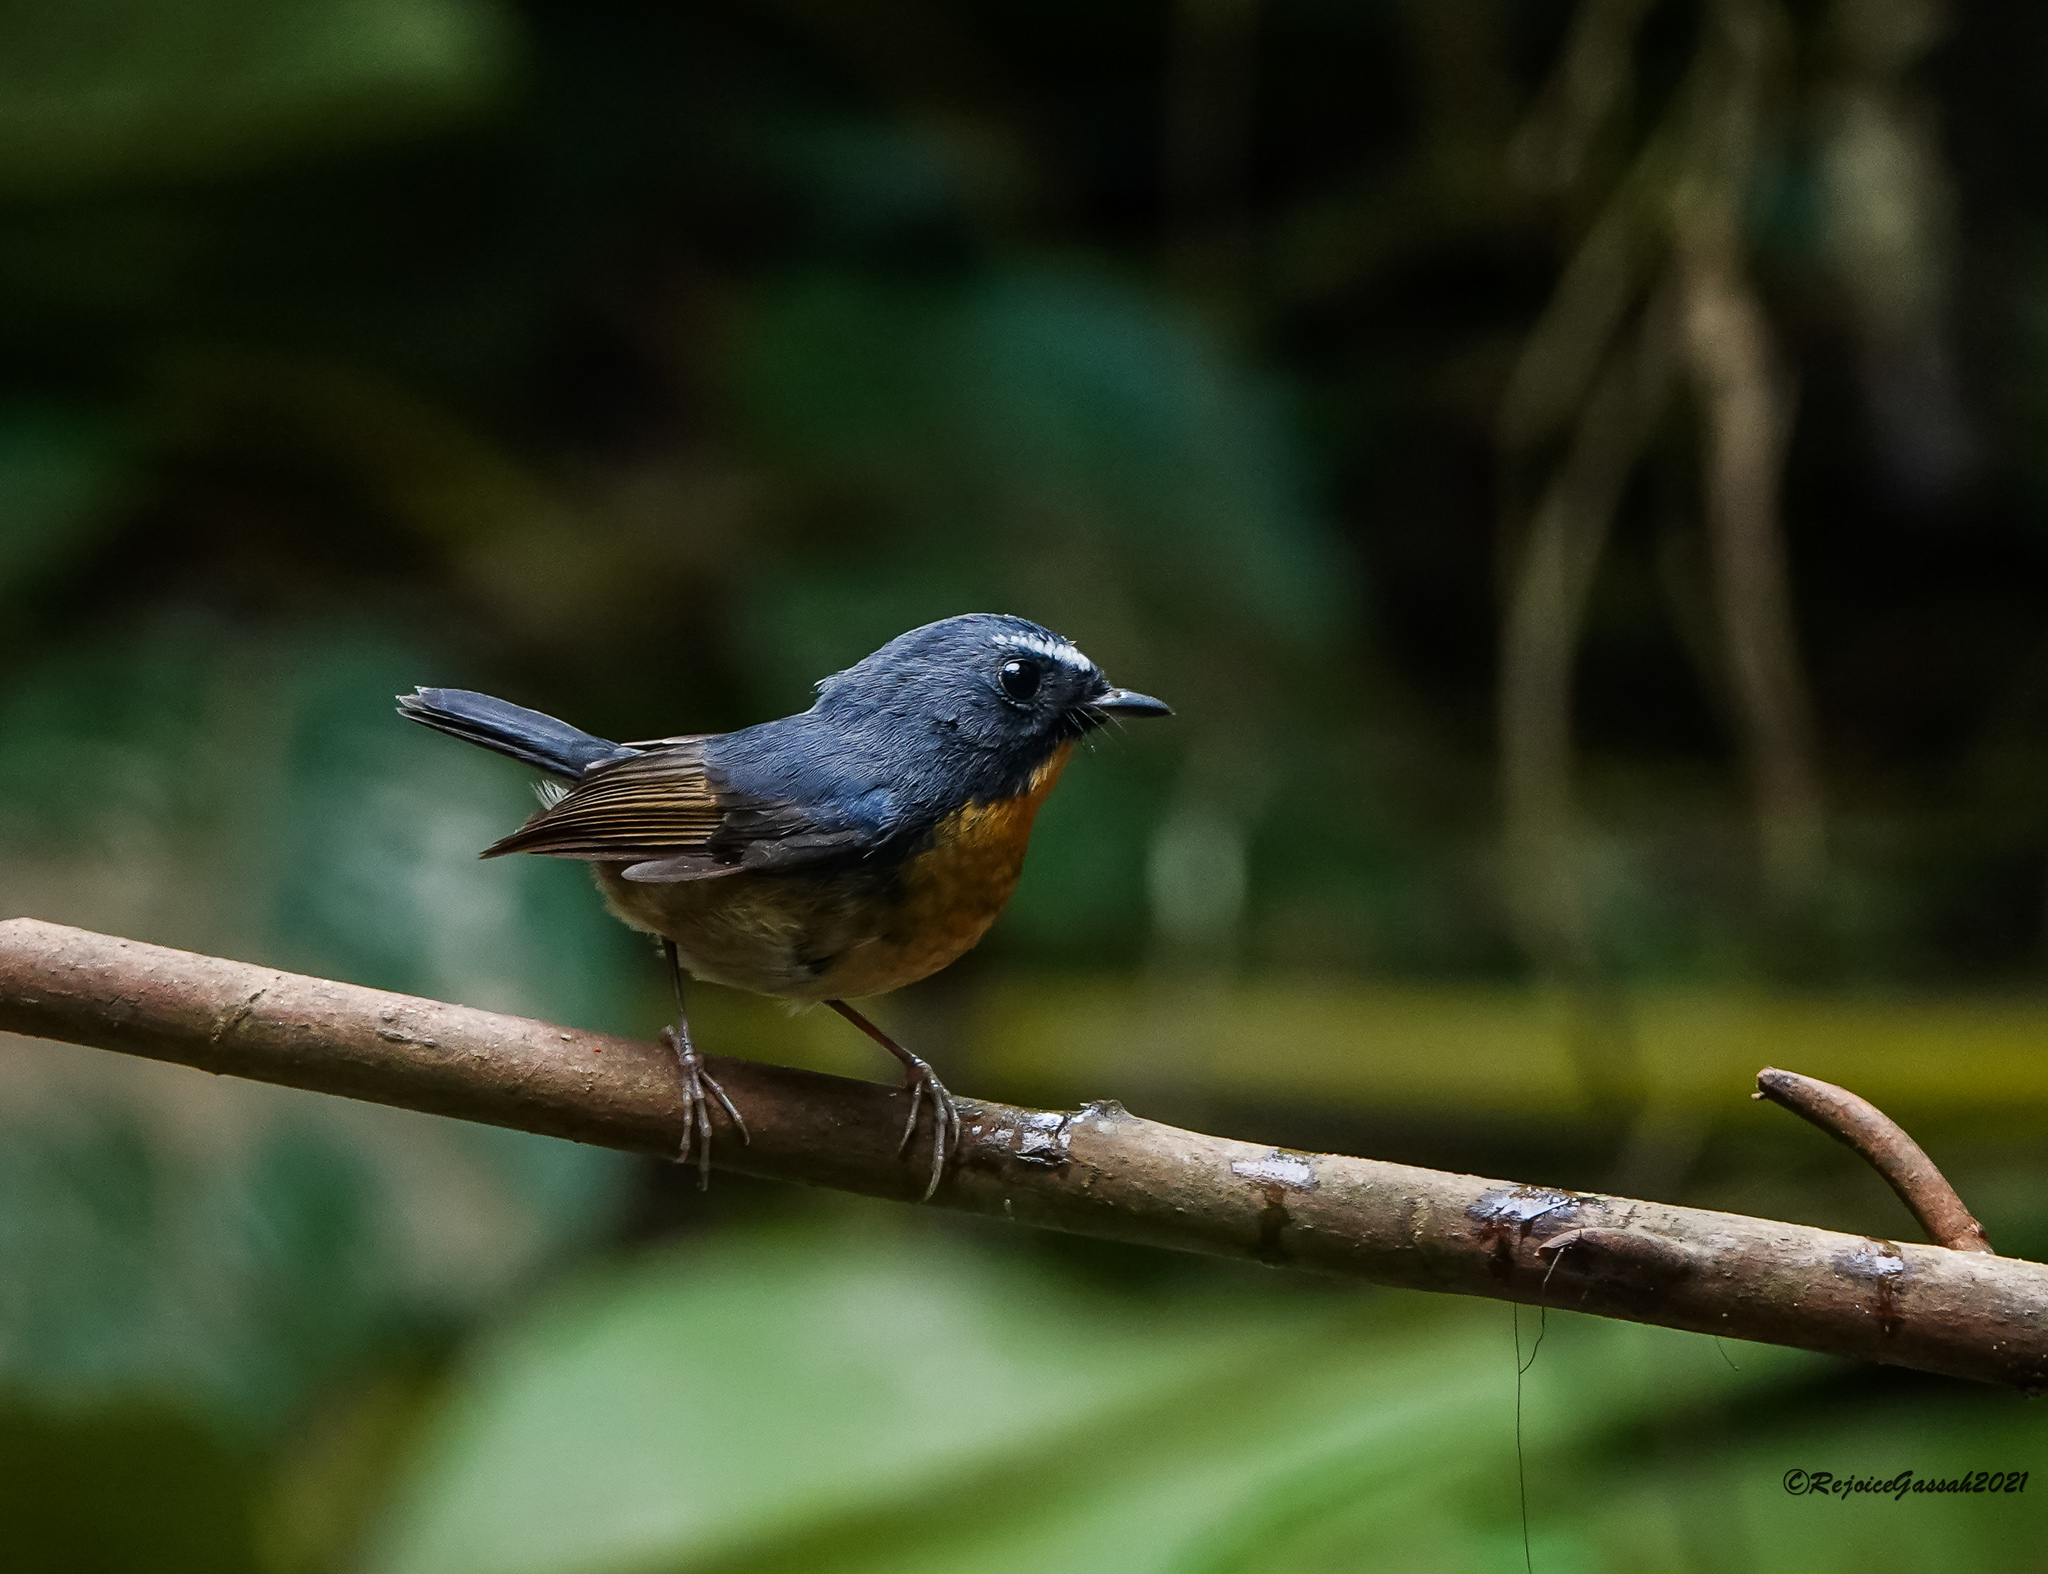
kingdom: Animalia
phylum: Chordata
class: Aves
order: Passeriformes
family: Muscicapidae
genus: Ficedula
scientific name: Ficedula hyperythra
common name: Snowy-browed flycatcher
